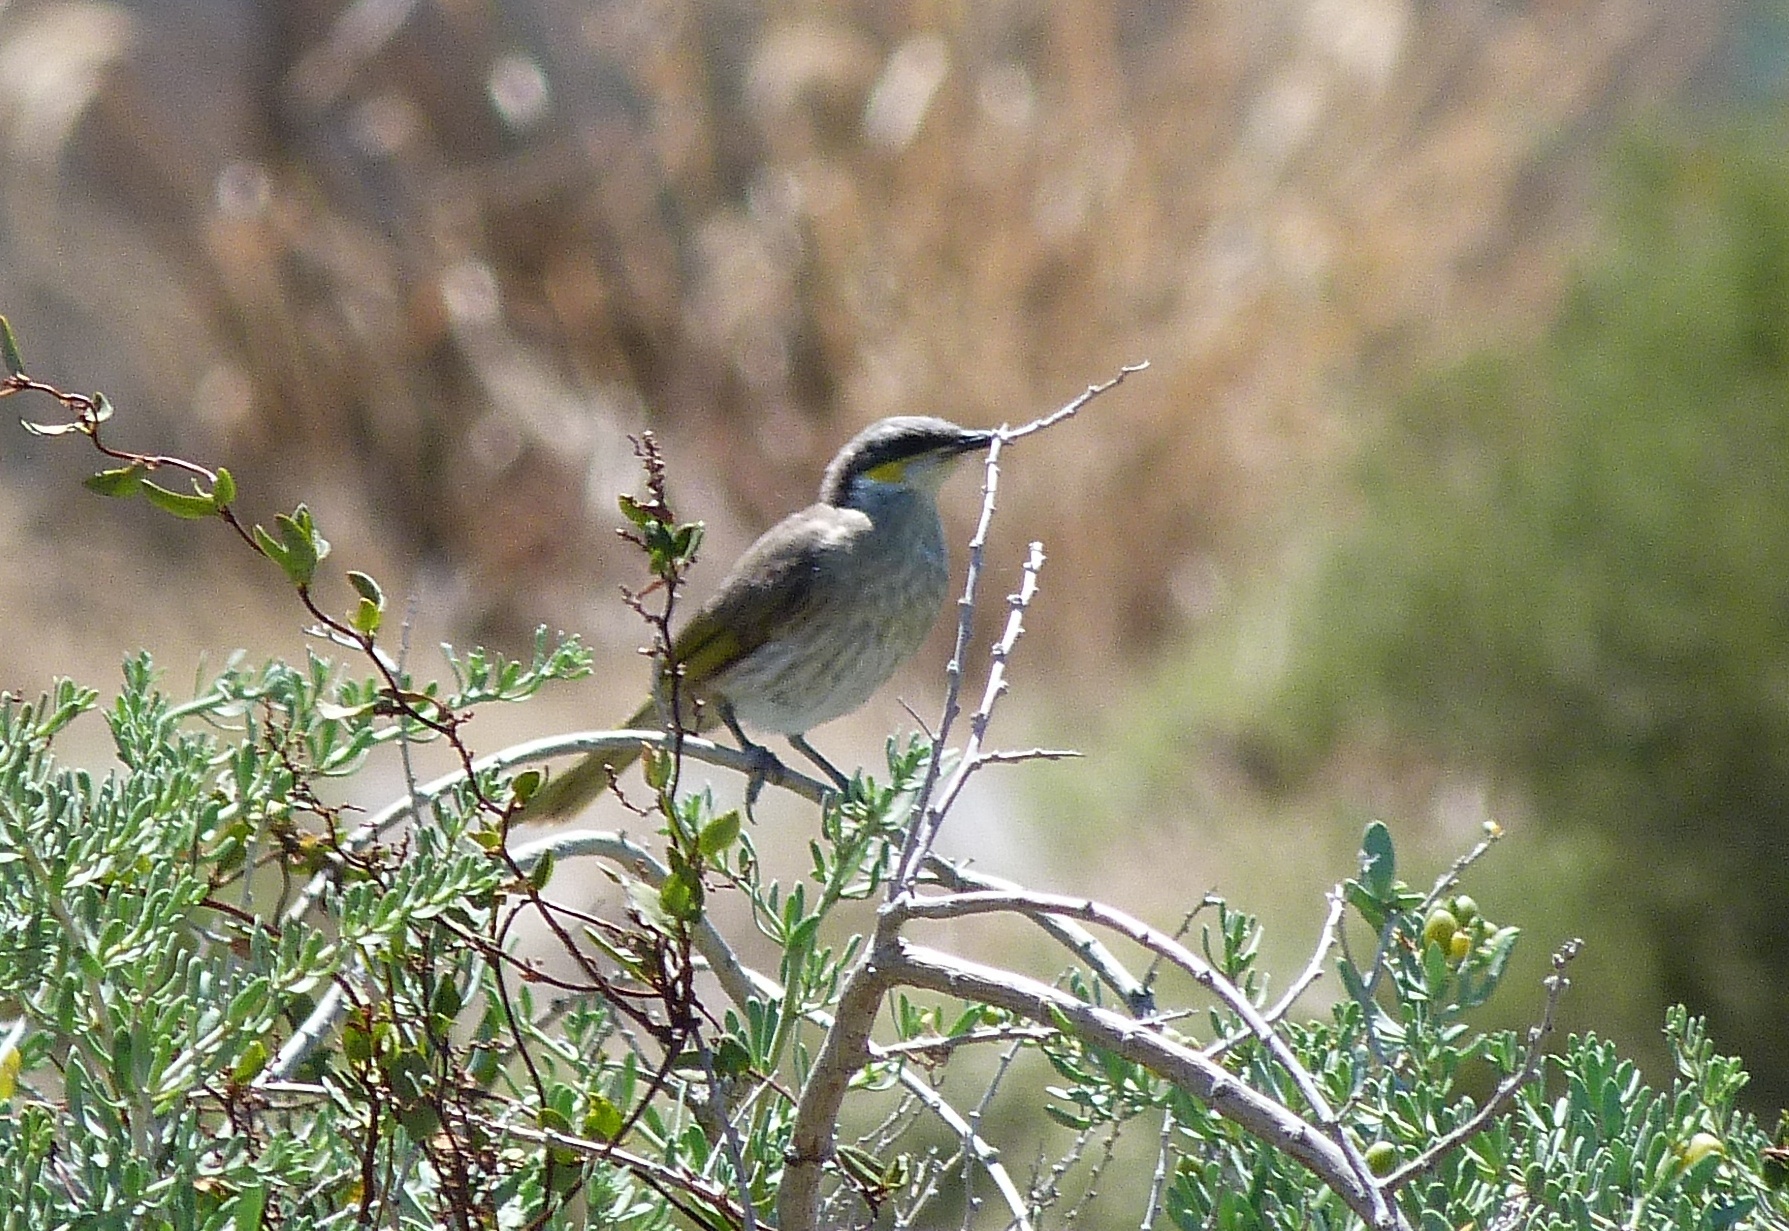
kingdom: Animalia
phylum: Chordata
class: Aves
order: Passeriformes
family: Meliphagidae
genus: Gavicalis
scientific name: Gavicalis virescens
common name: Singing honeyeater
